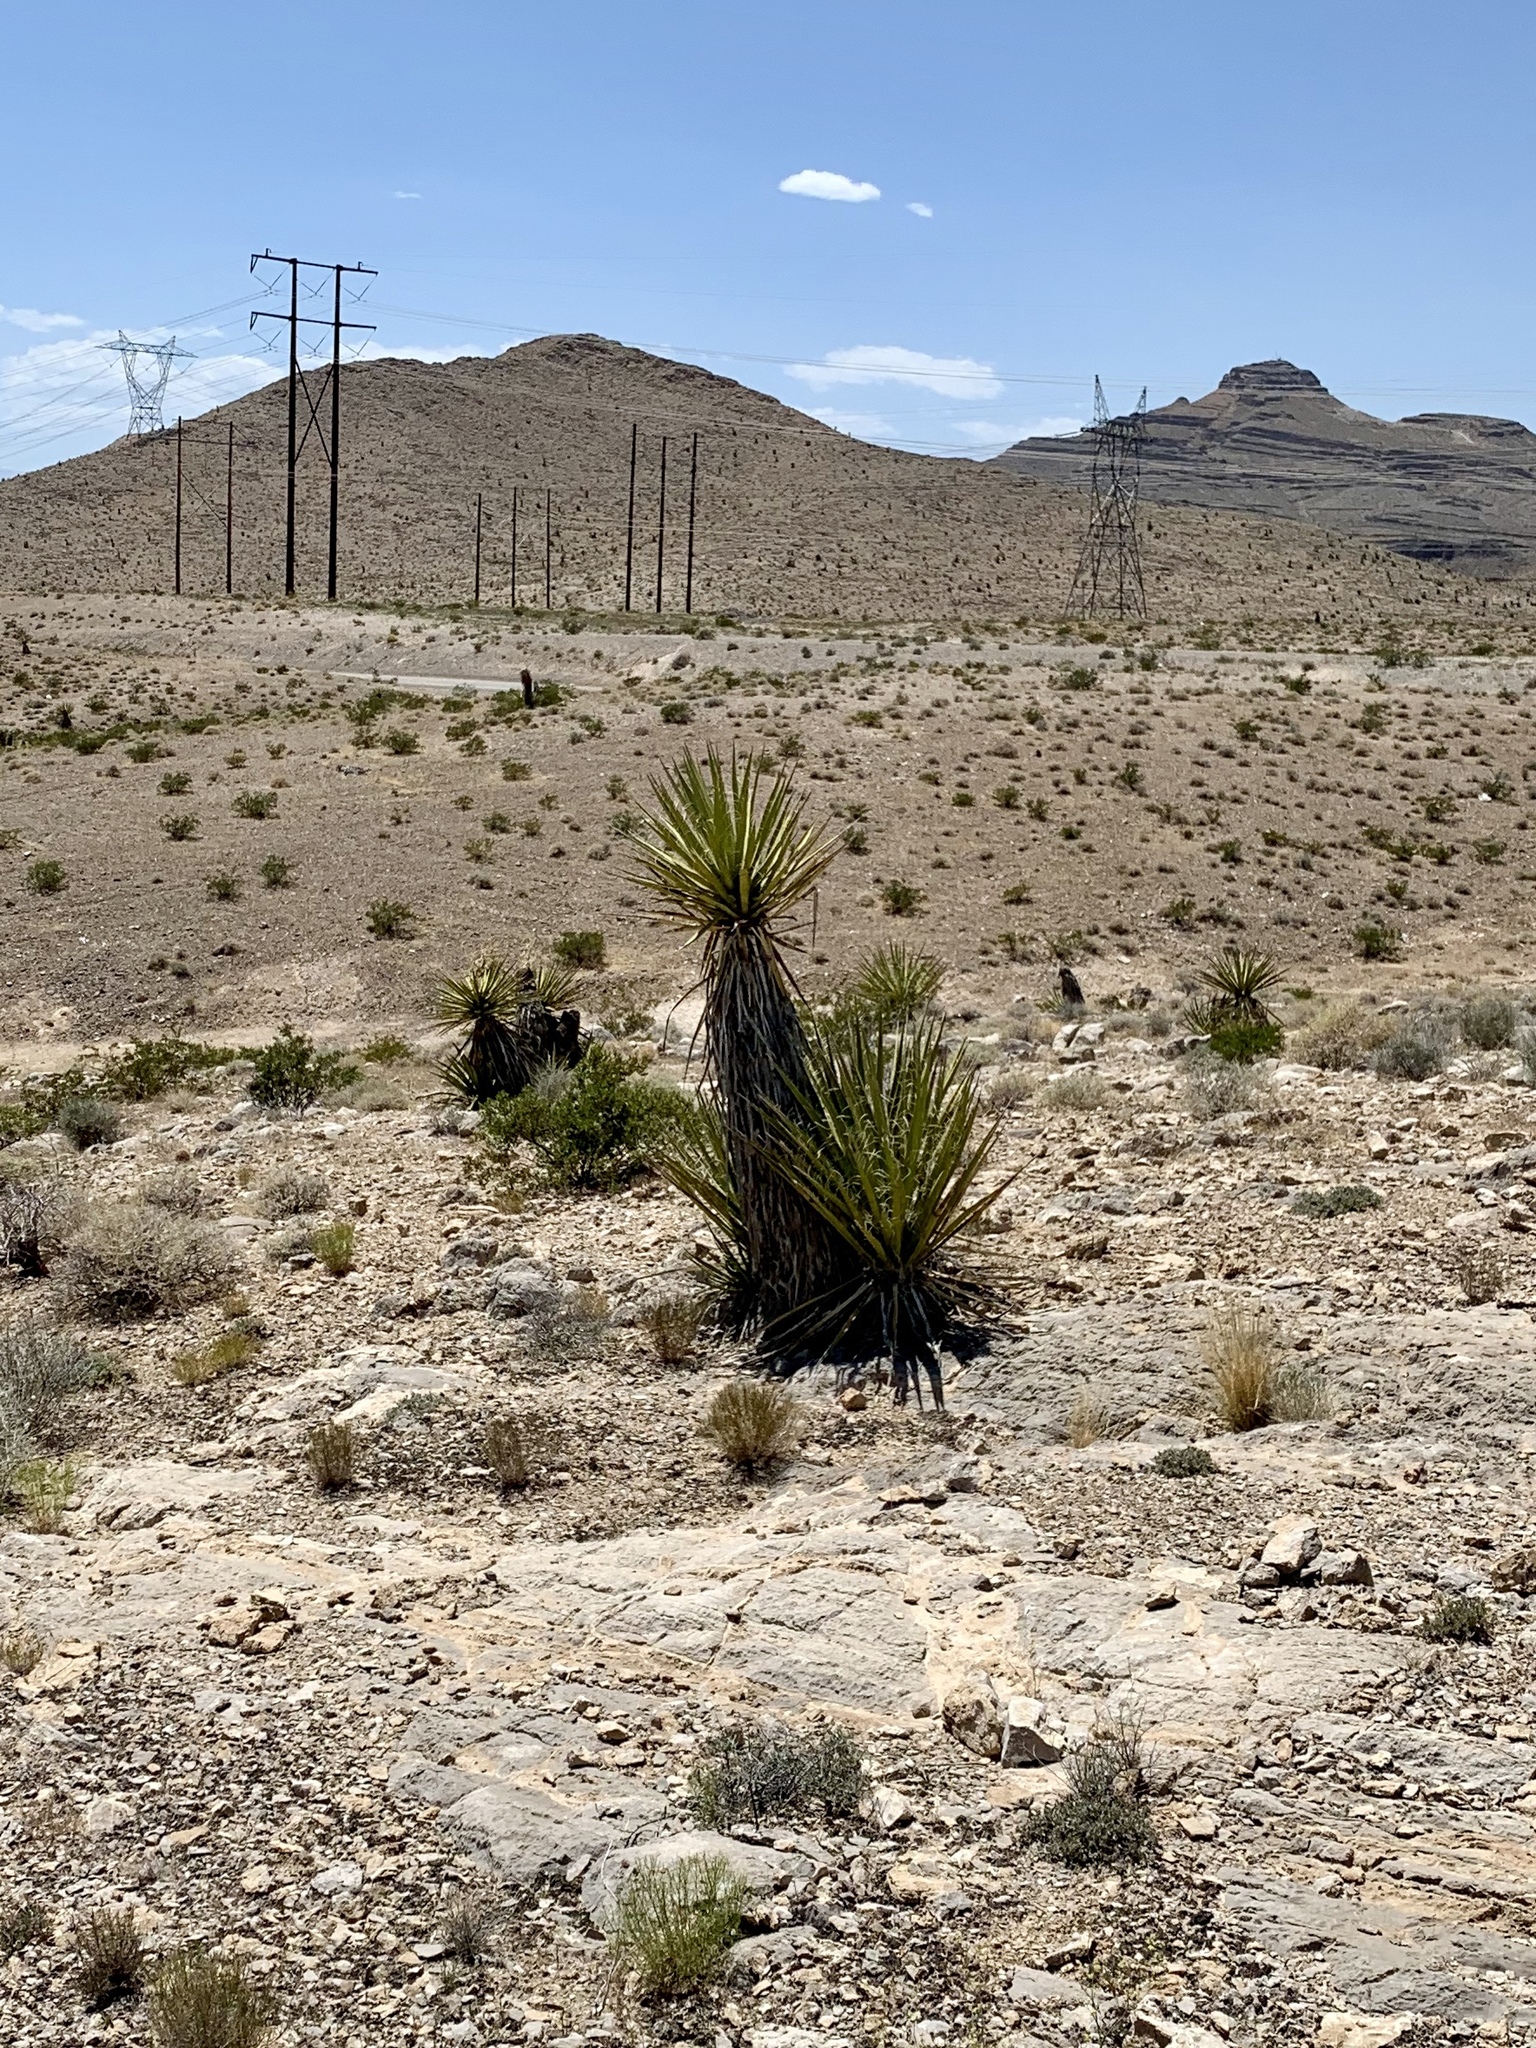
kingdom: Plantae
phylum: Tracheophyta
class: Liliopsida
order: Asparagales
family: Asparagaceae
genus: Yucca
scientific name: Yucca schidigera
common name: Mojave yucca
